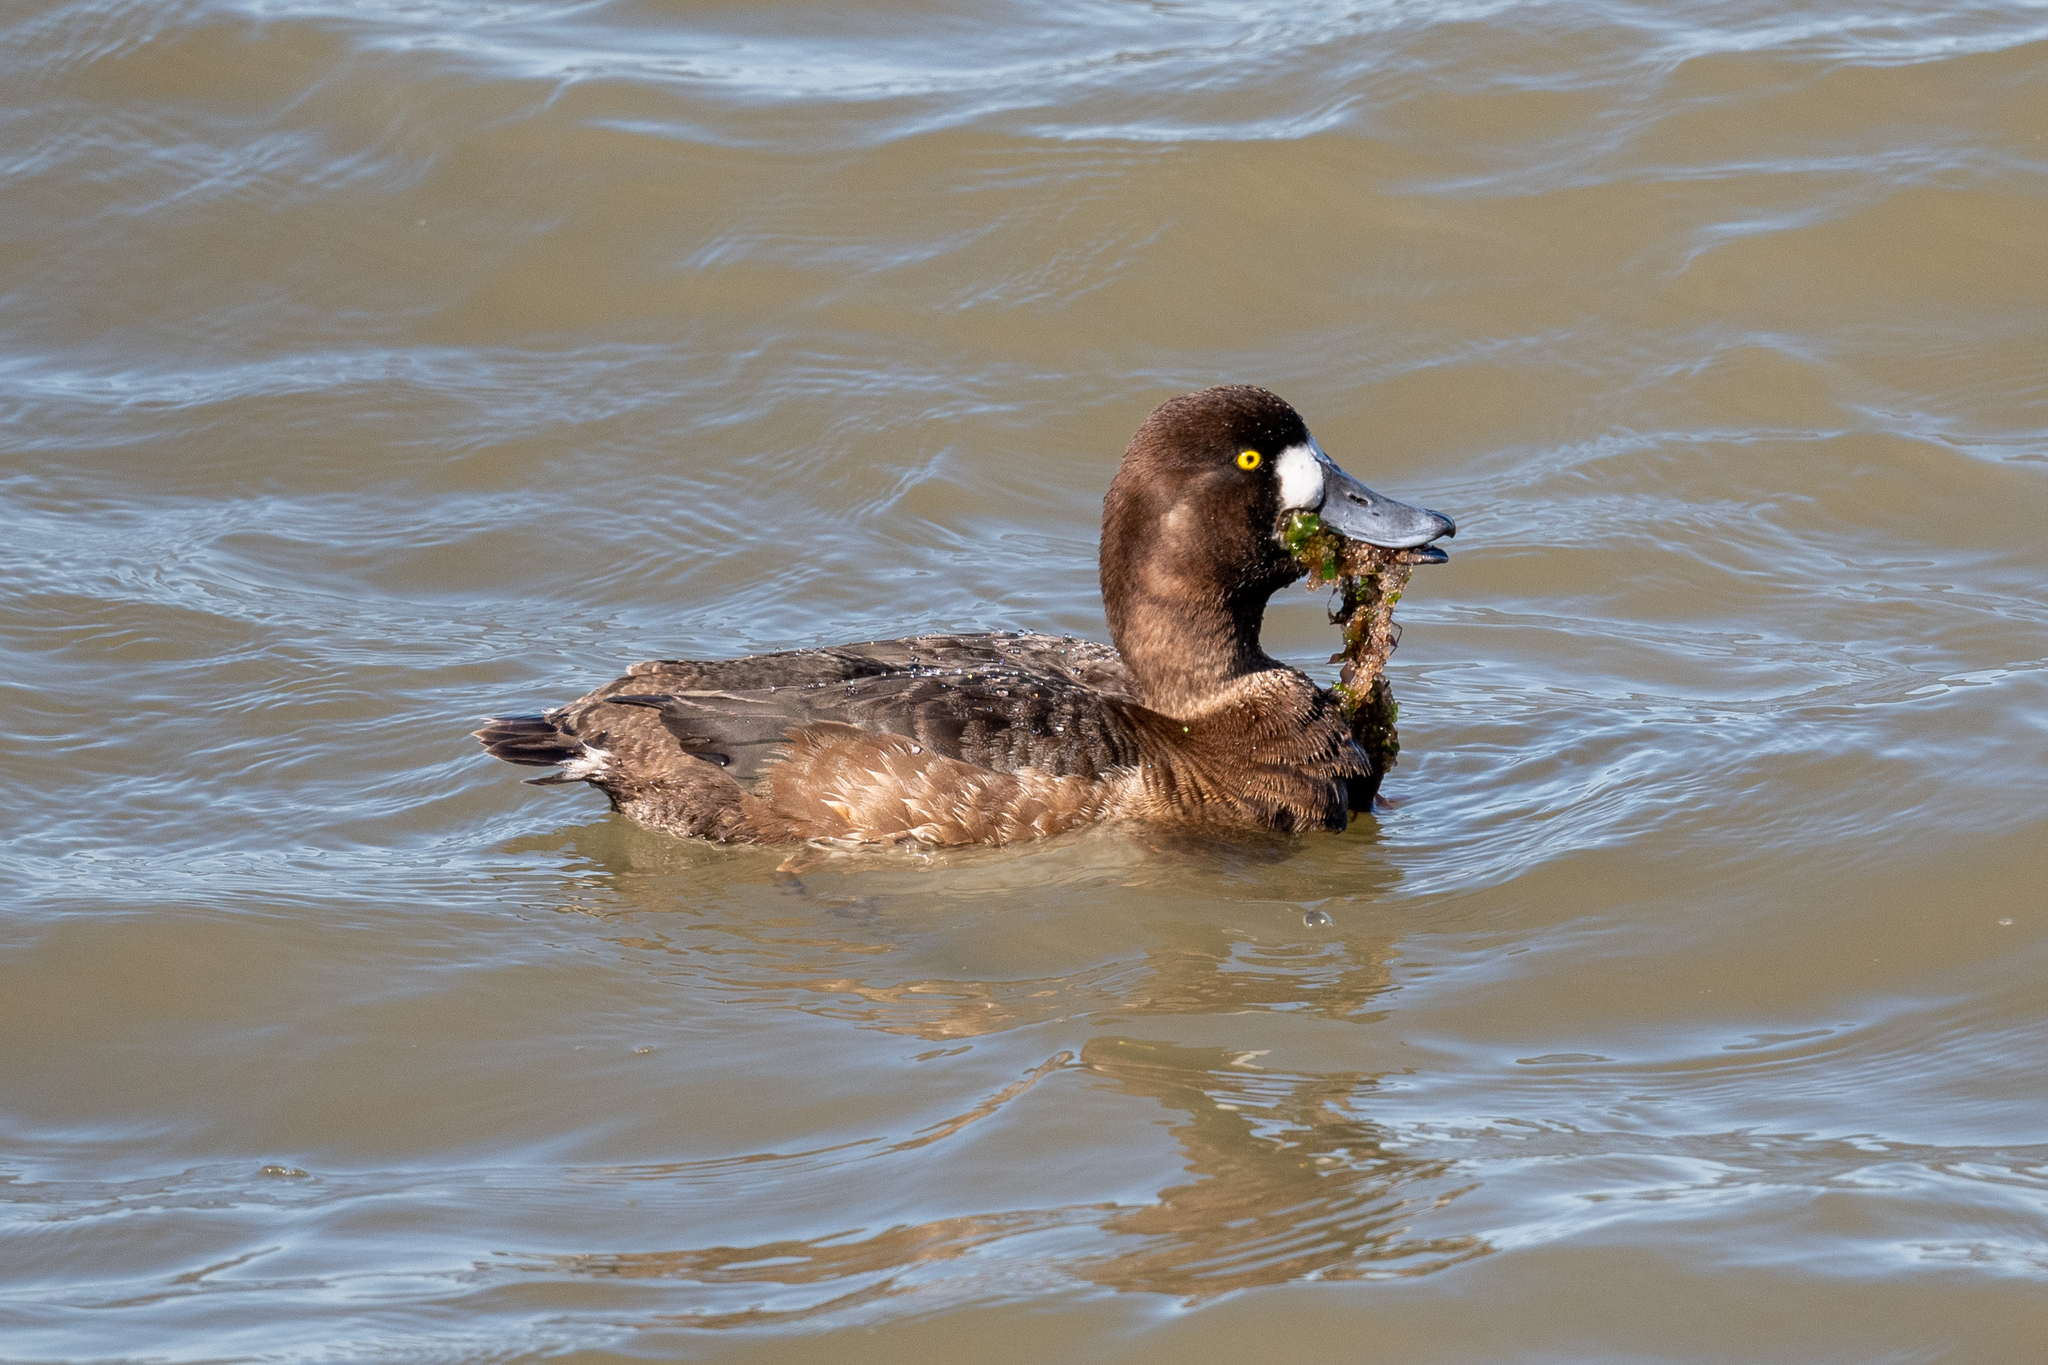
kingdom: Animalia
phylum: Chordata
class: Aves
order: Anseriformes
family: Anatidae
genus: Aythya
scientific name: Aythya marila
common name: Greater scaup
